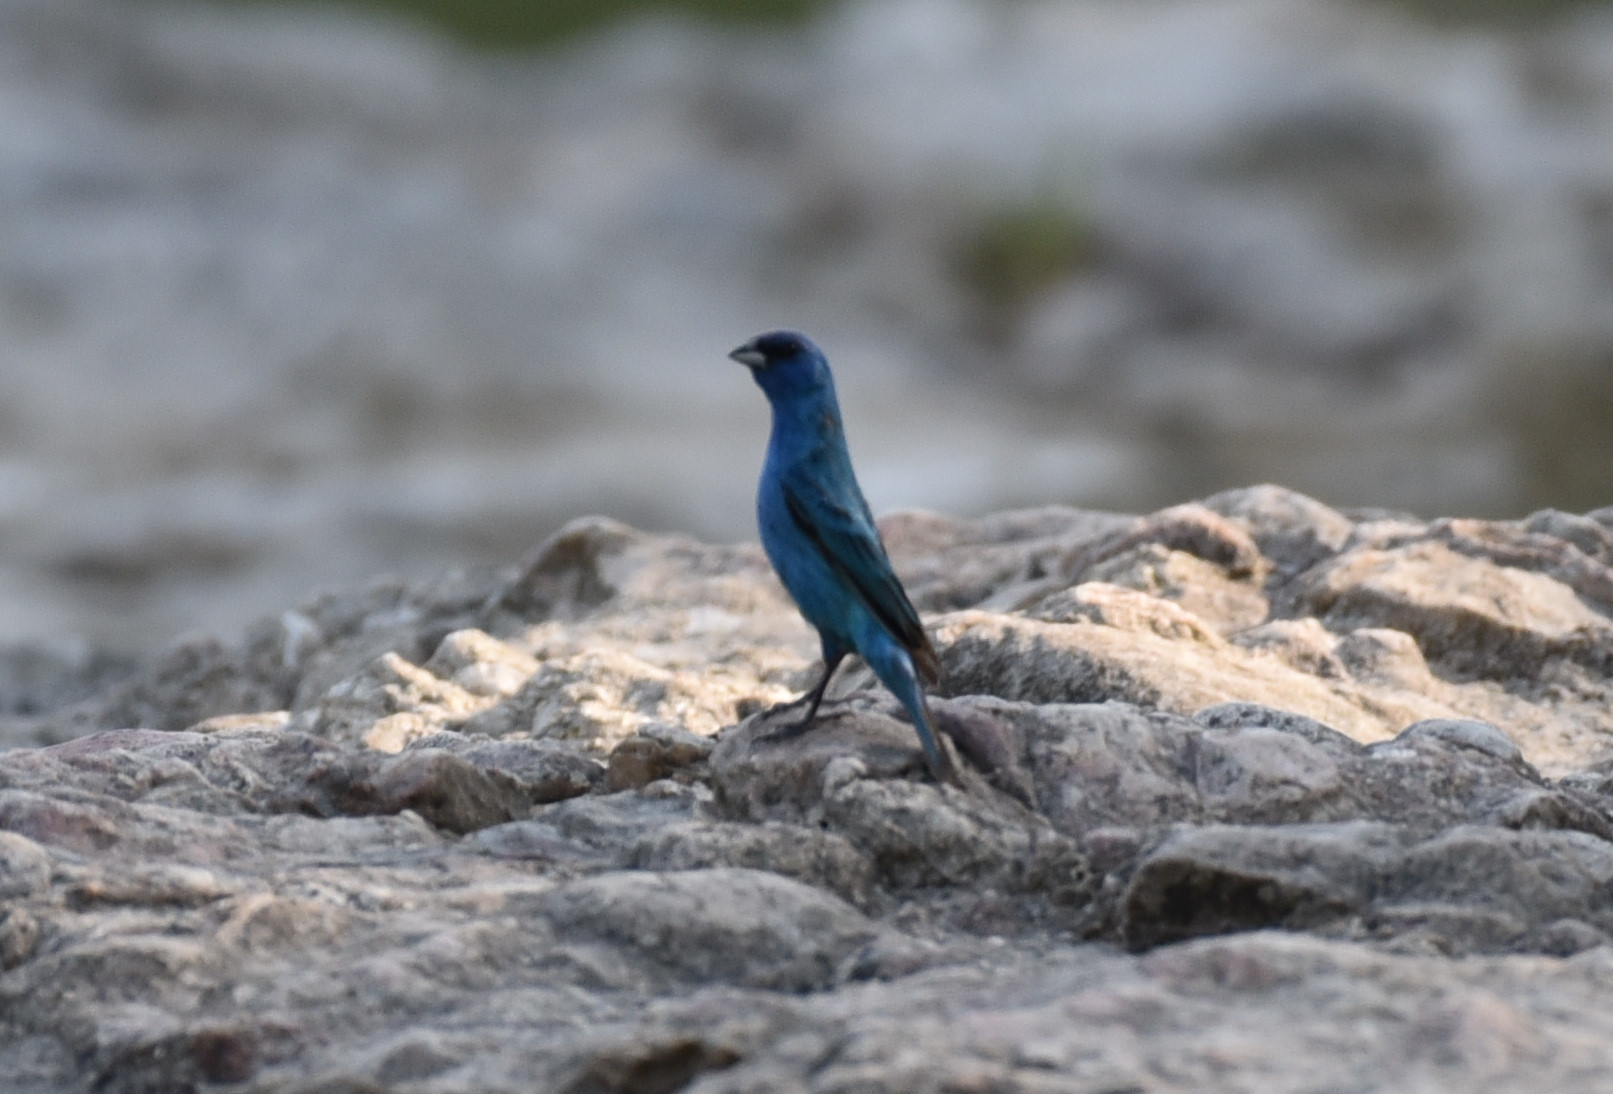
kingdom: Animalia
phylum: Chordata
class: Aves
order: Passeriformes
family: Cardinalidae
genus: Passerina
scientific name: Passerina cyanea
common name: Indigo bunting
